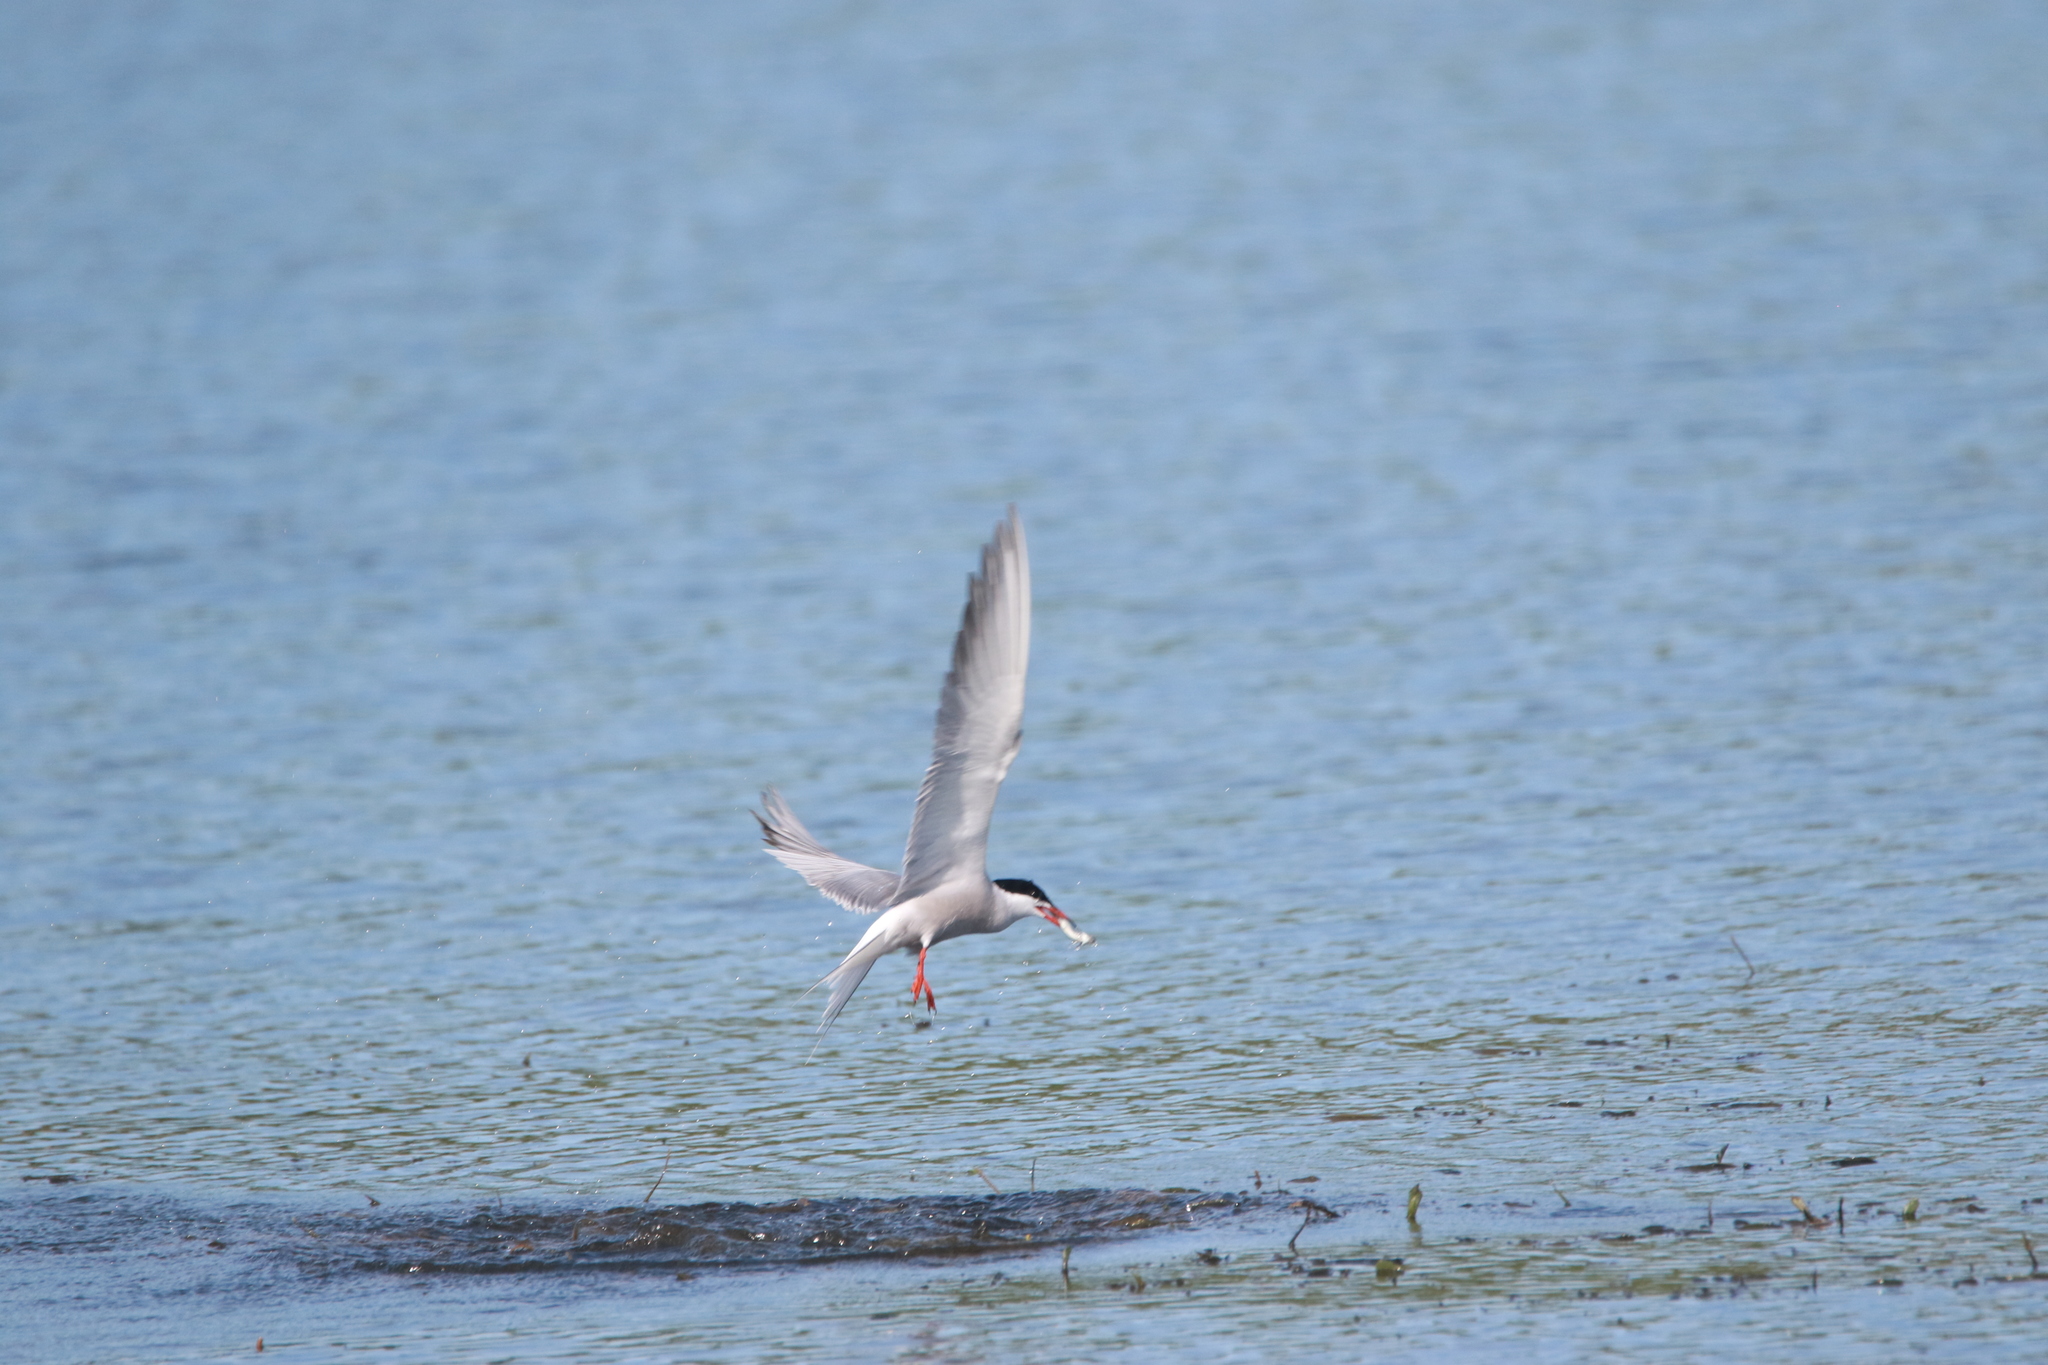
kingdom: Animalia
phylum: Chordata
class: Aves
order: Charadriiformes
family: Laridae
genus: Sterna
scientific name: Sterna hirundo
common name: Common tern
